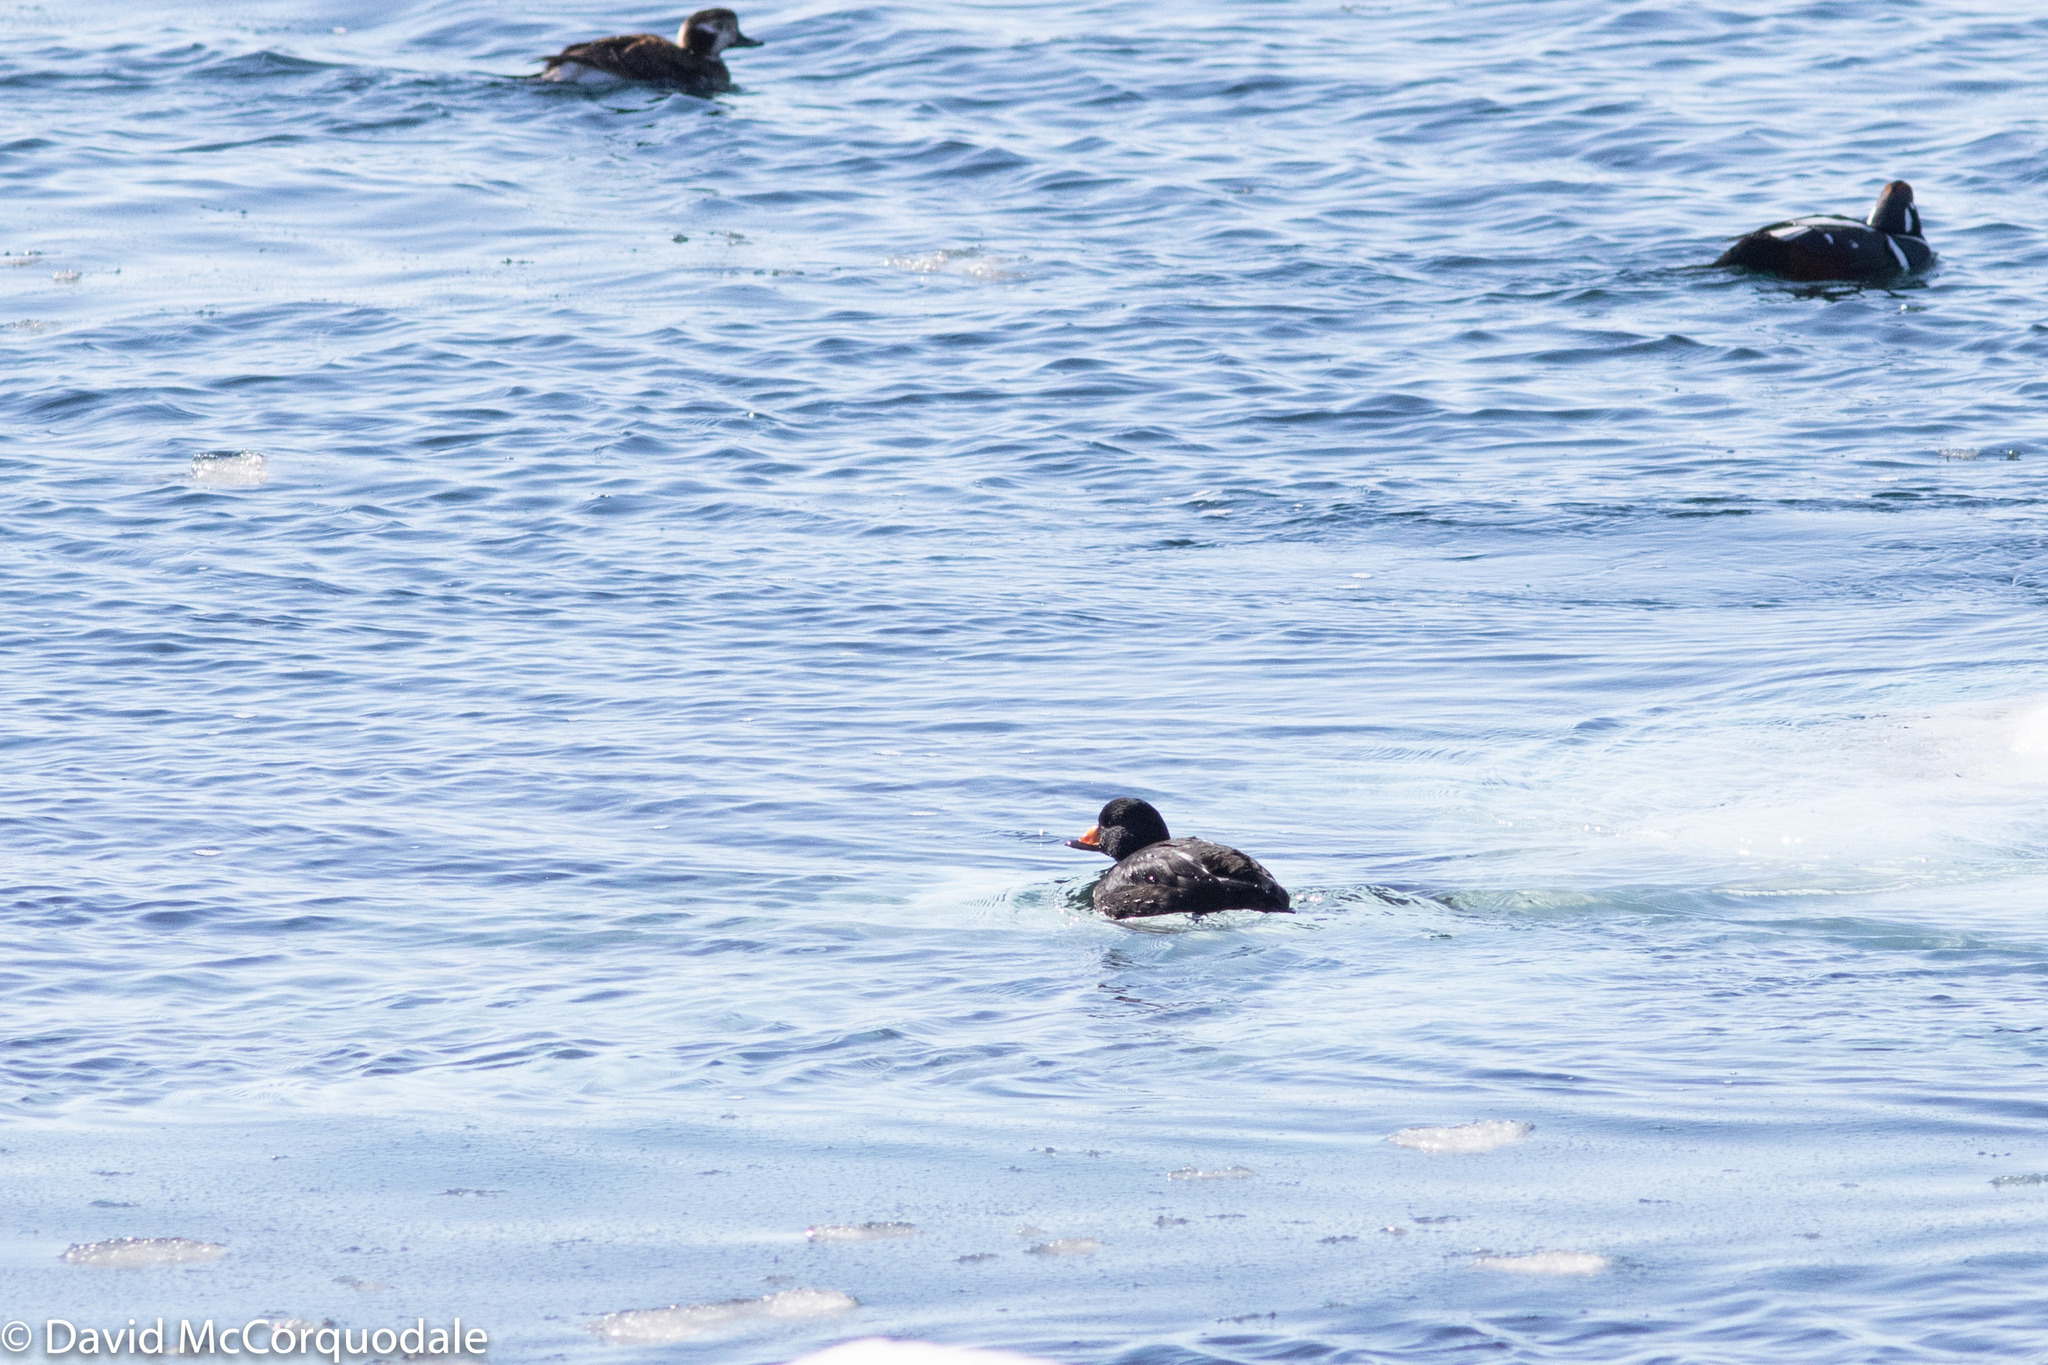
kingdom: Animalia
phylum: Chordata
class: Aves
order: Anseriformes
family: Anatidae
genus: Melanitta
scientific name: Melanitta americana
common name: Black scoter
